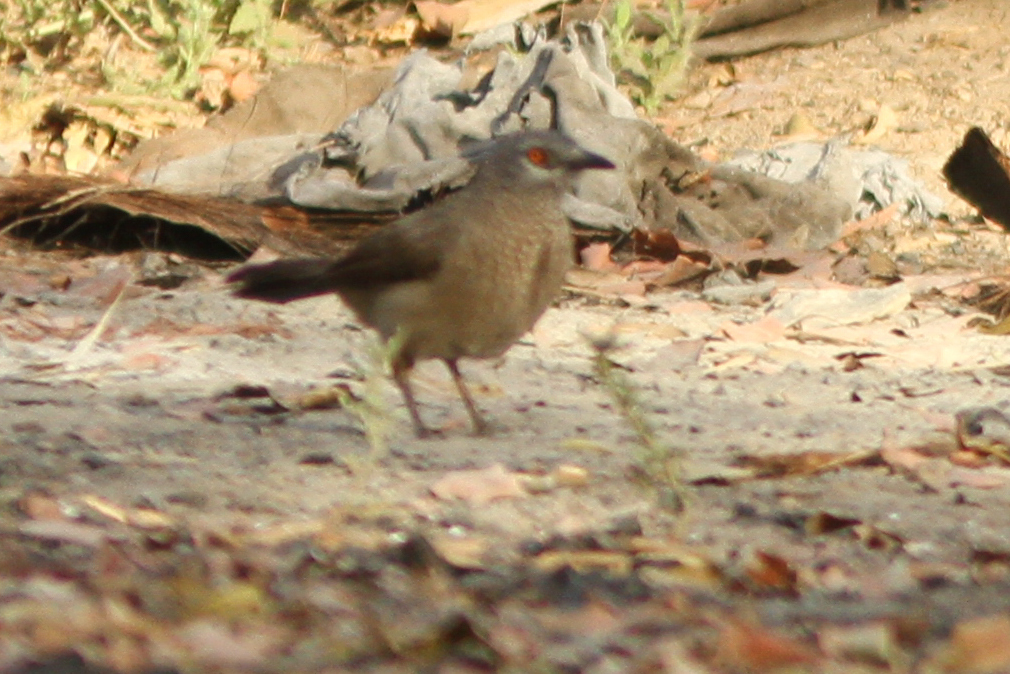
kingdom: Animalia
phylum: Chordata
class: Aves
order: Passeriformes
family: Leiothrichidae
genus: Turdoides
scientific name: Turdoides plebejus
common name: Brown babbler
